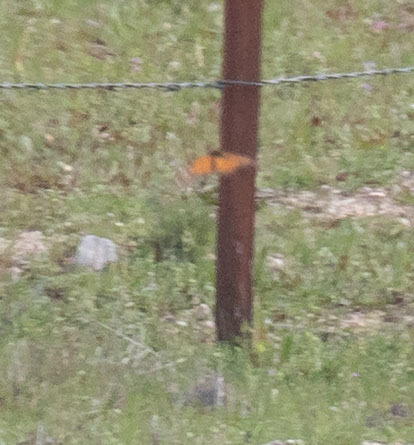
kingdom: Animalia
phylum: Arthropoda
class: Insecta
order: Lepidoptera
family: Nymphalidae
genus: Danaus
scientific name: Danaus plexippus
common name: Monarch
